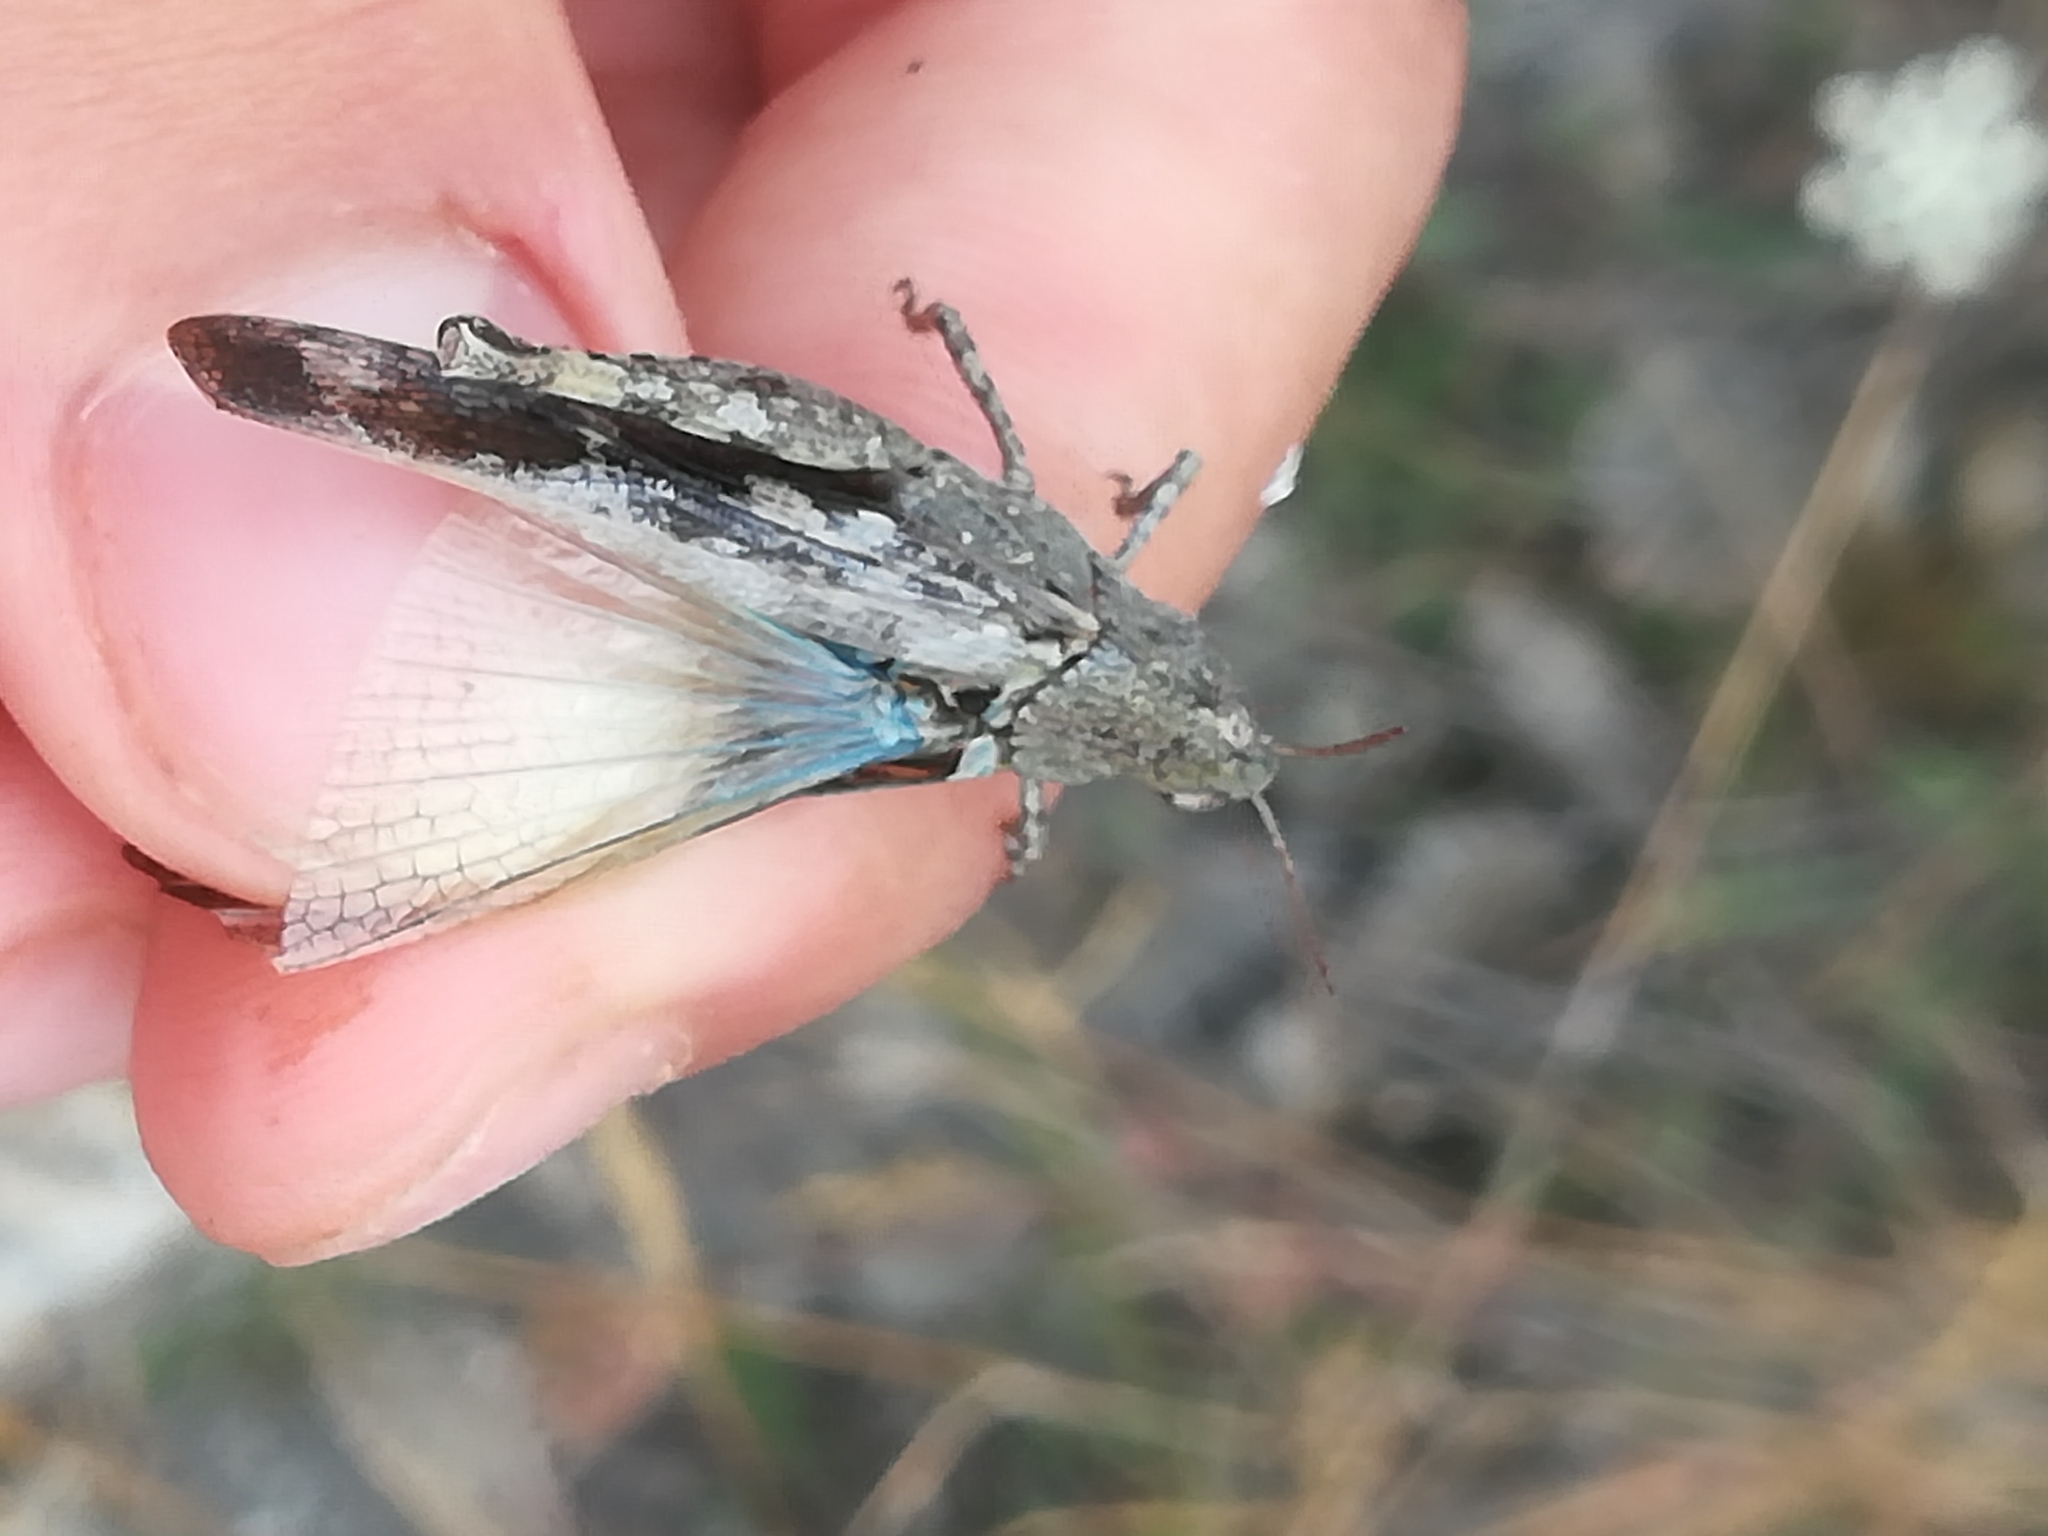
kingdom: Animalia
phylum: Arthropoda
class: Insecta
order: Orthoptera
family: Acrididae
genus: Aiolopus
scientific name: Aiolopus strepens
